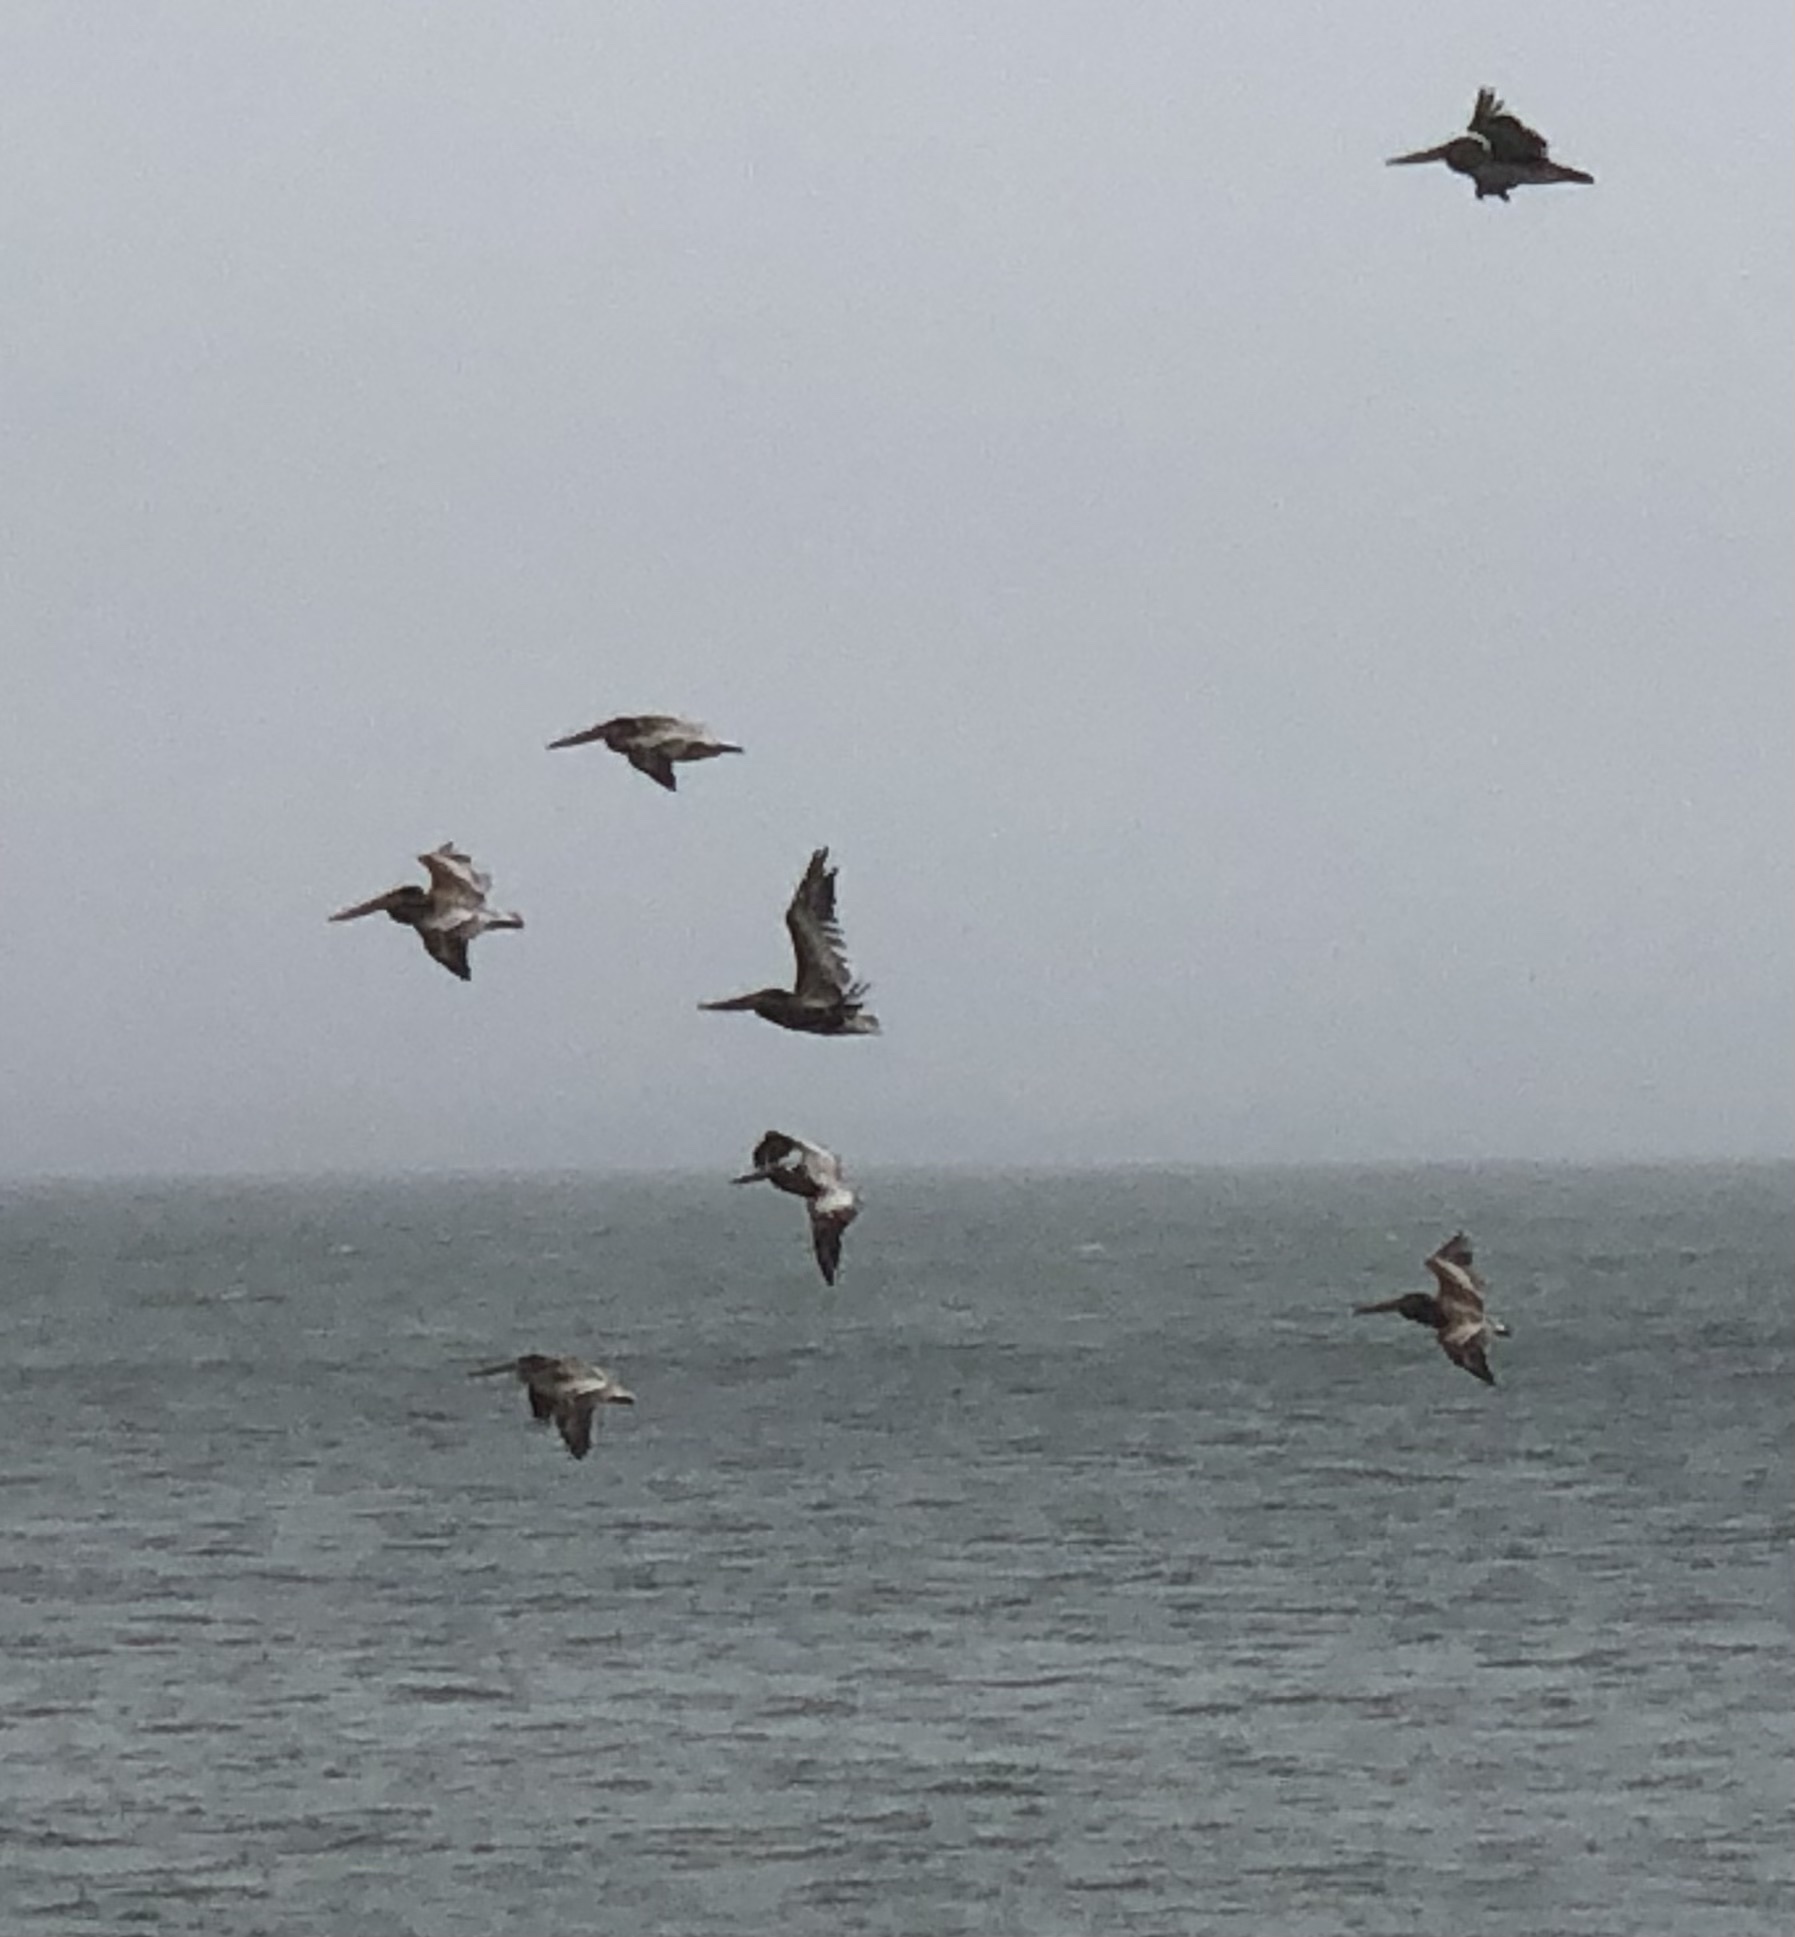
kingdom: Animalia
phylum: Chordata
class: Aves
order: Pelecaniformes
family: Pelecanidae
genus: Pelecanus
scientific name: Pelecanus occidentalis
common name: Brown pelican
